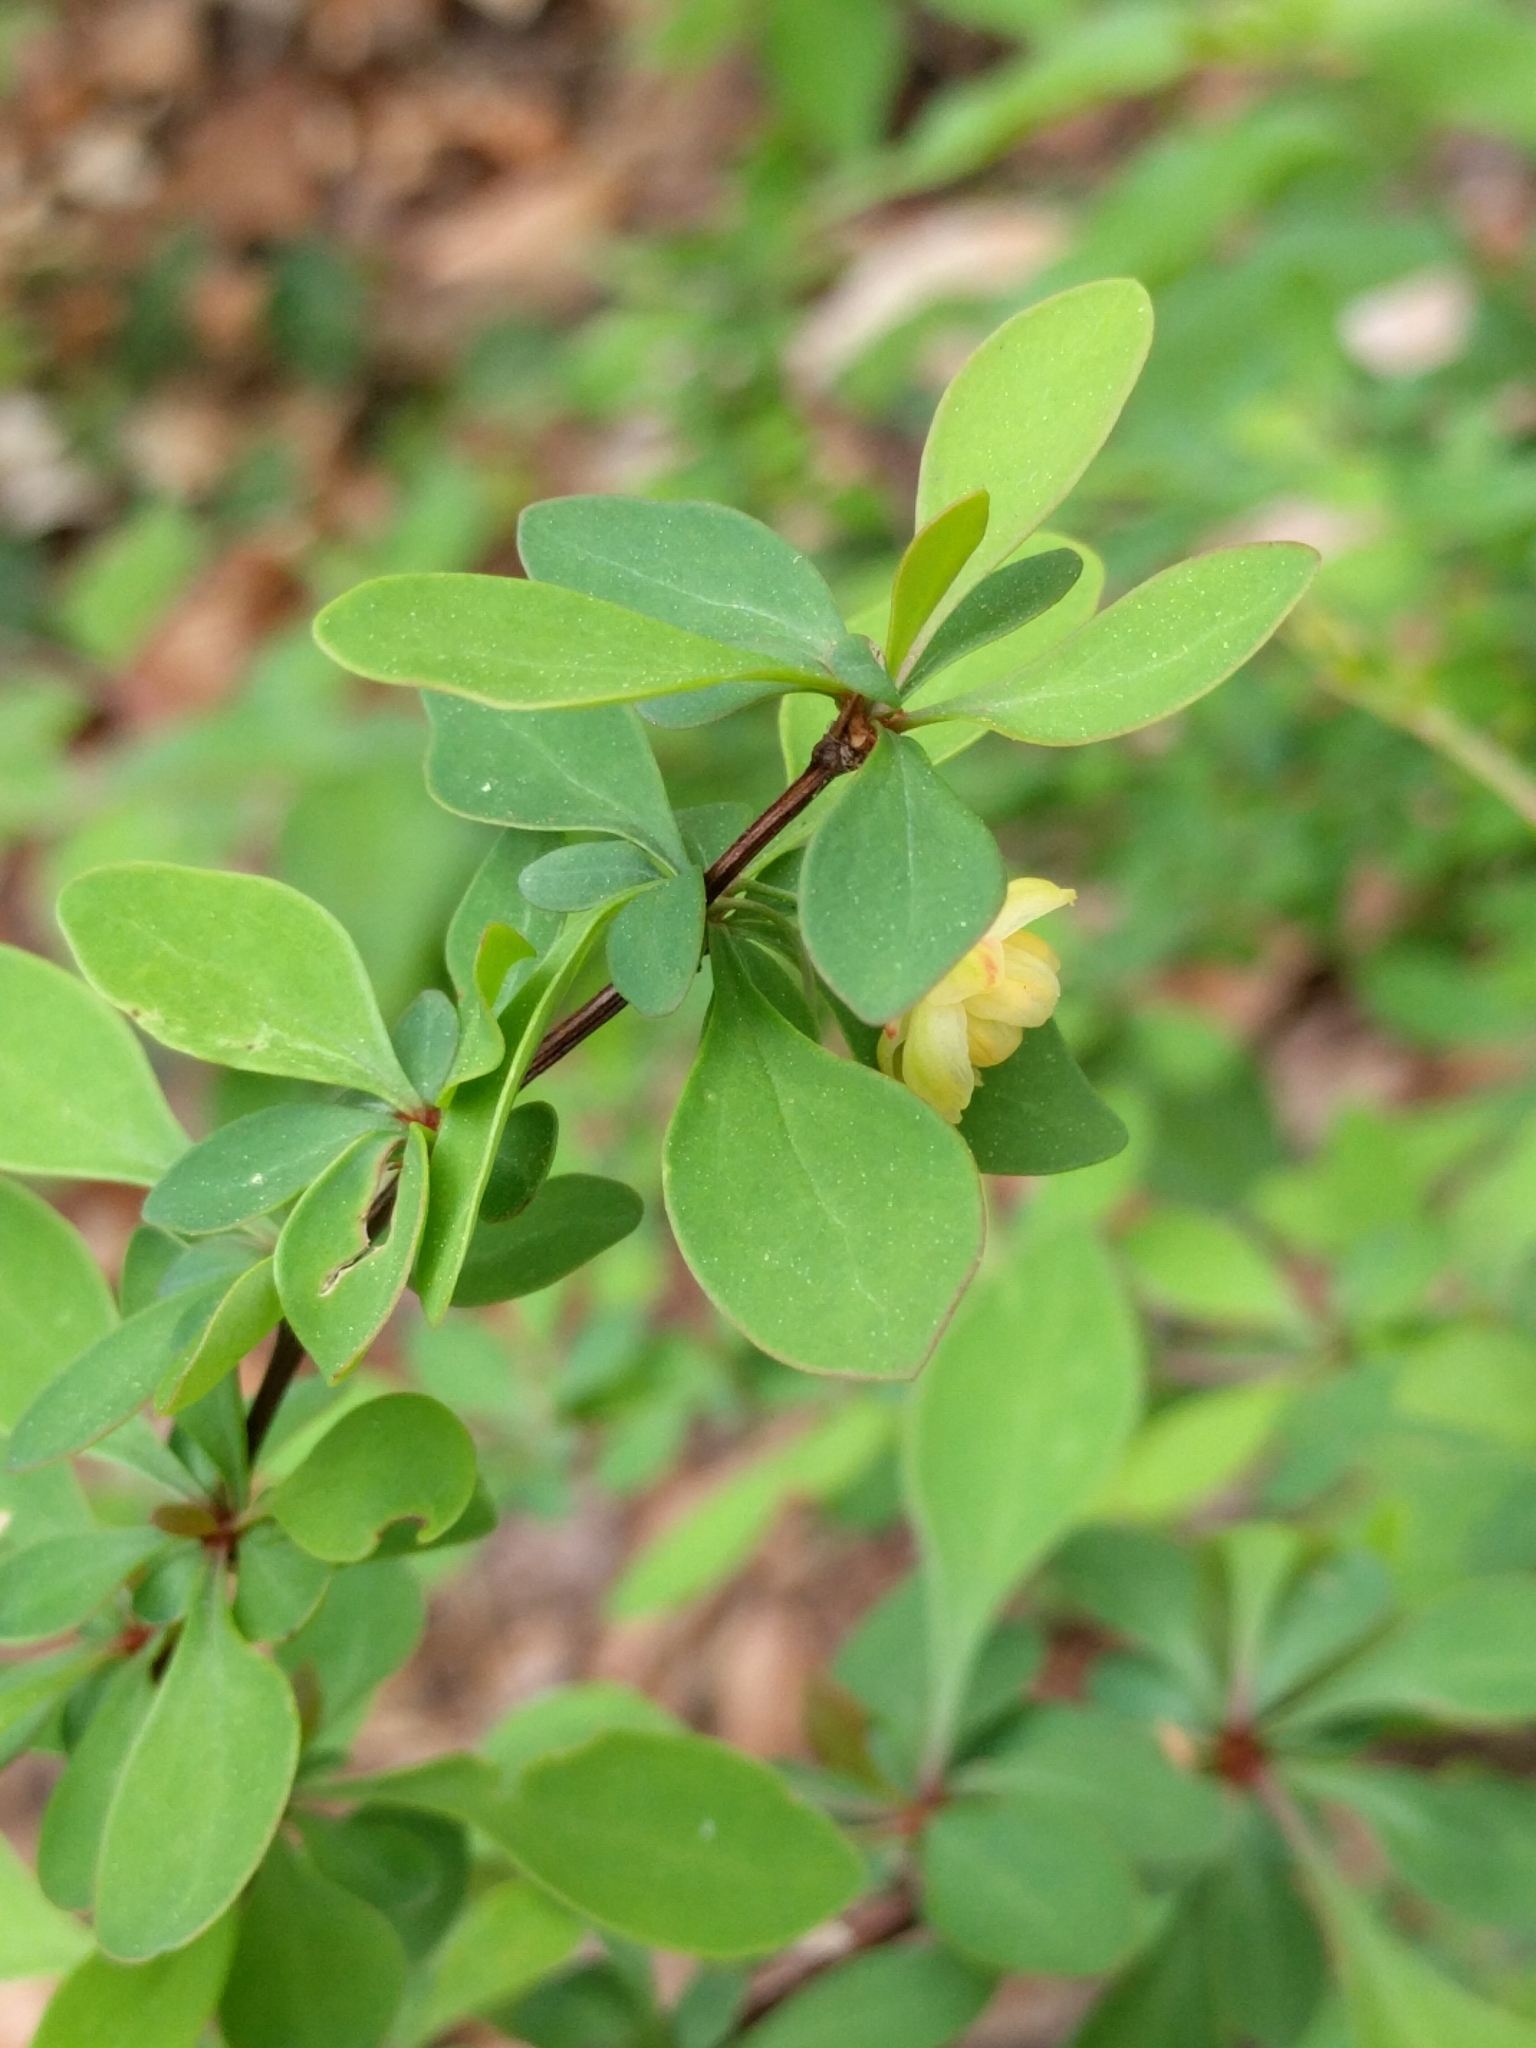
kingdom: Plantae
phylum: Tracheophyta
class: Magnoliopsida
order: Ranunculales
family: Berberidaceae
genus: Berberis
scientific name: Berberis thunbergii
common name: Japanese barberry
